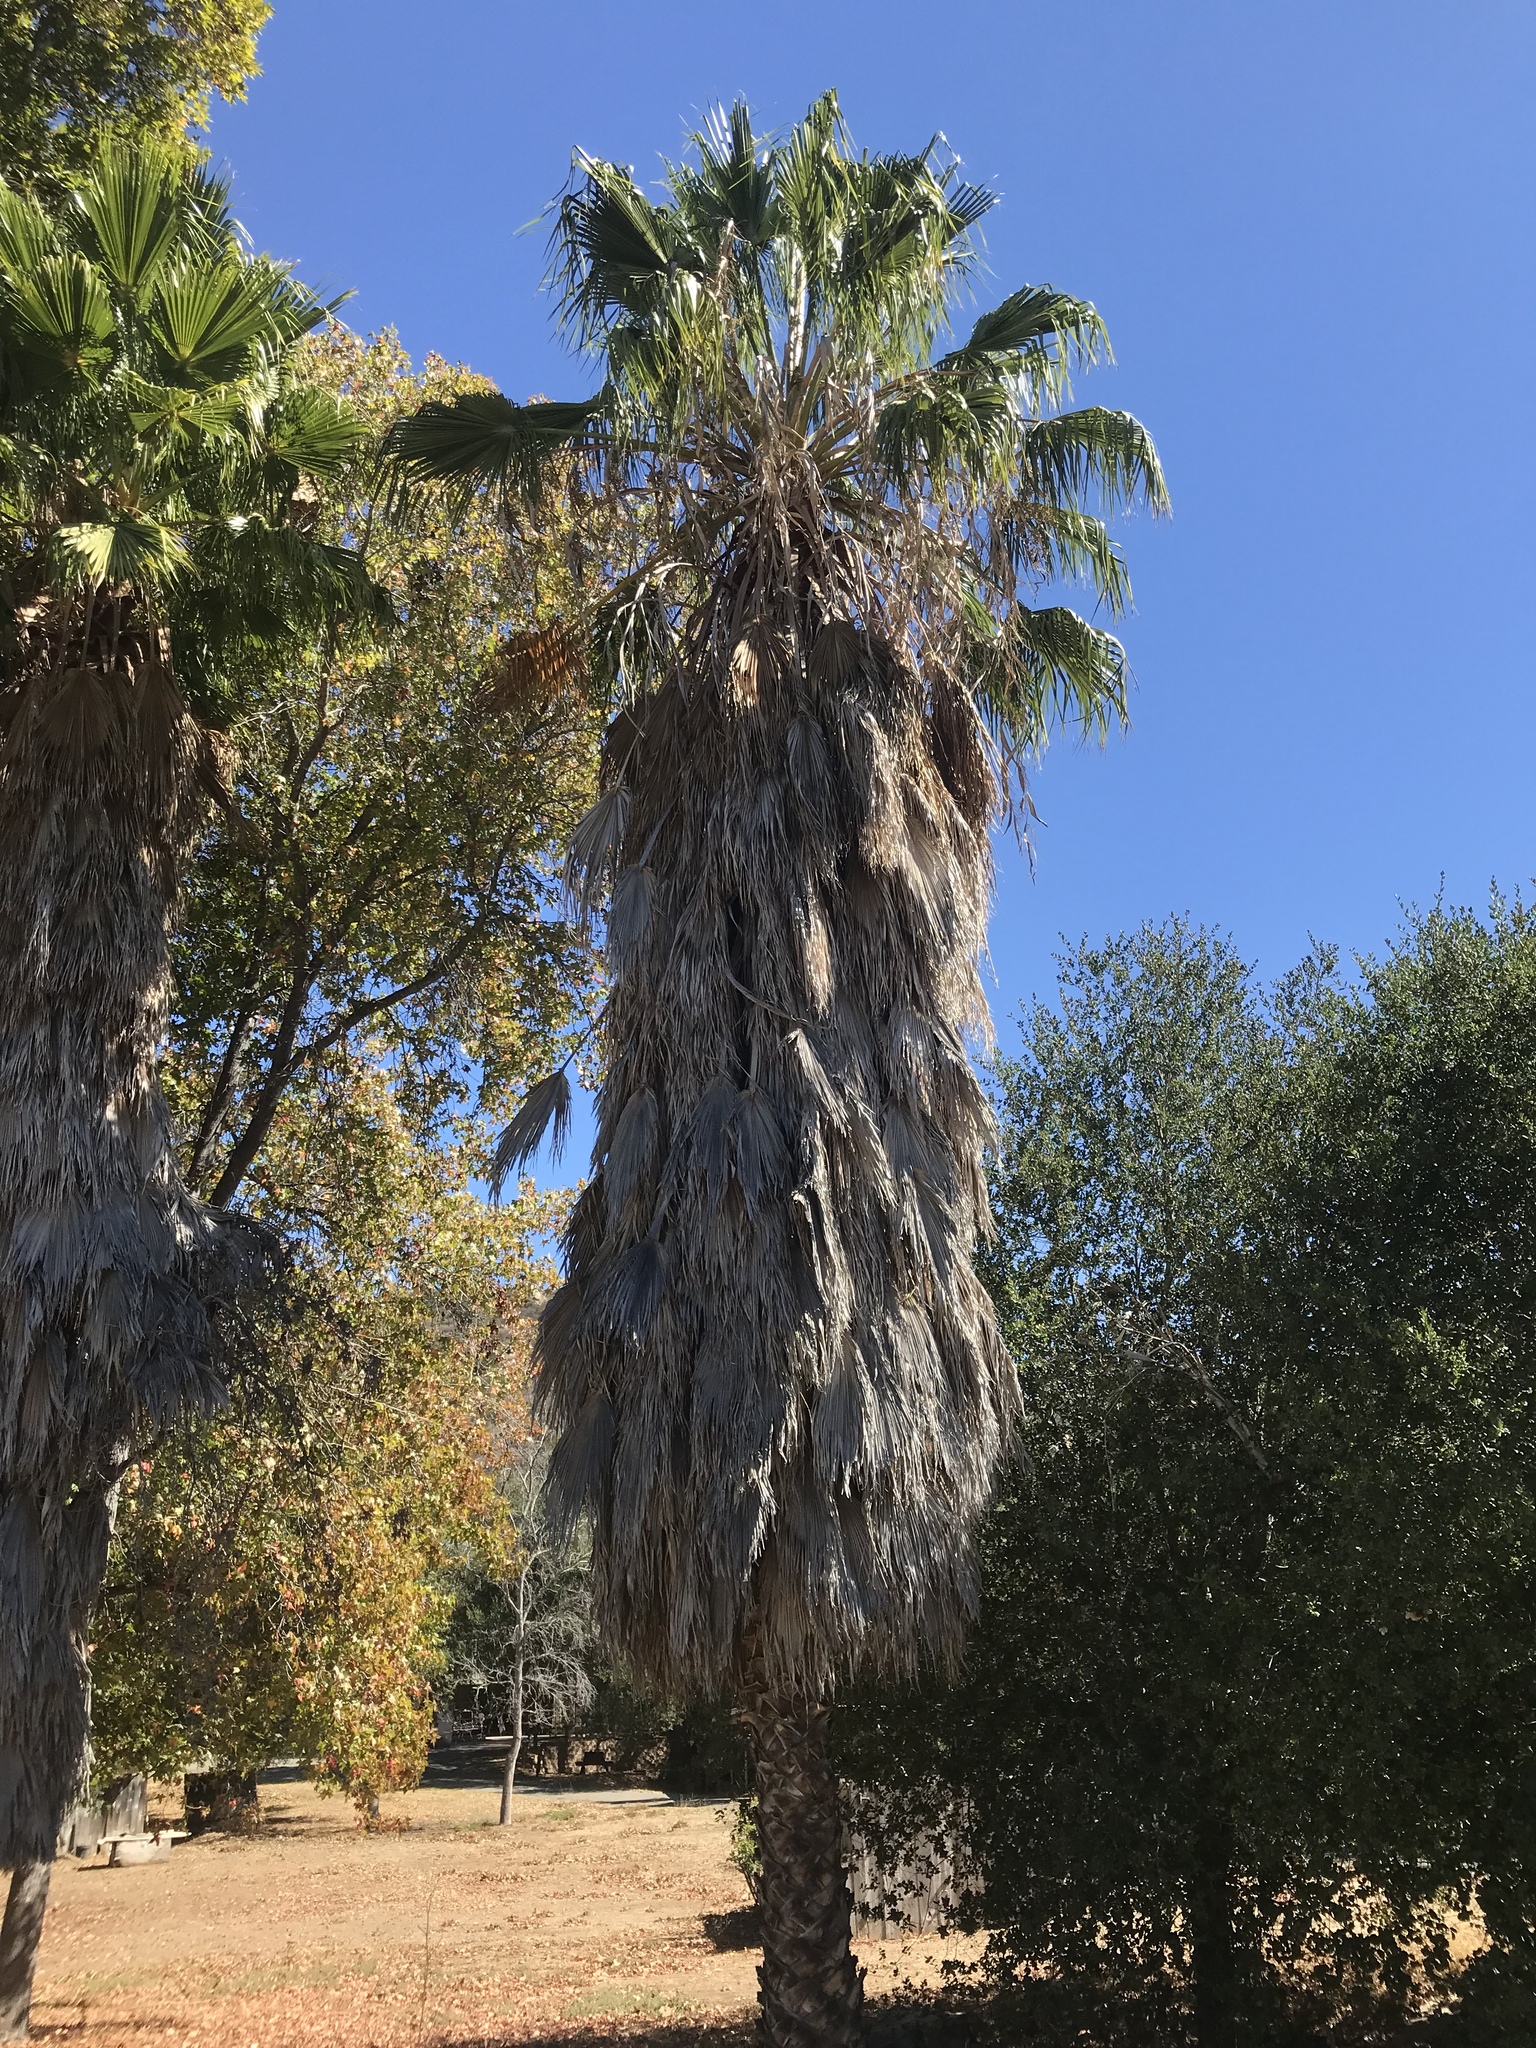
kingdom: Plantae
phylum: Tracheophyta
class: Liliopsida
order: Arecales
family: Arecaceae
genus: Washingtonia
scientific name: Washingtonia robusta
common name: Mexican fan palm
